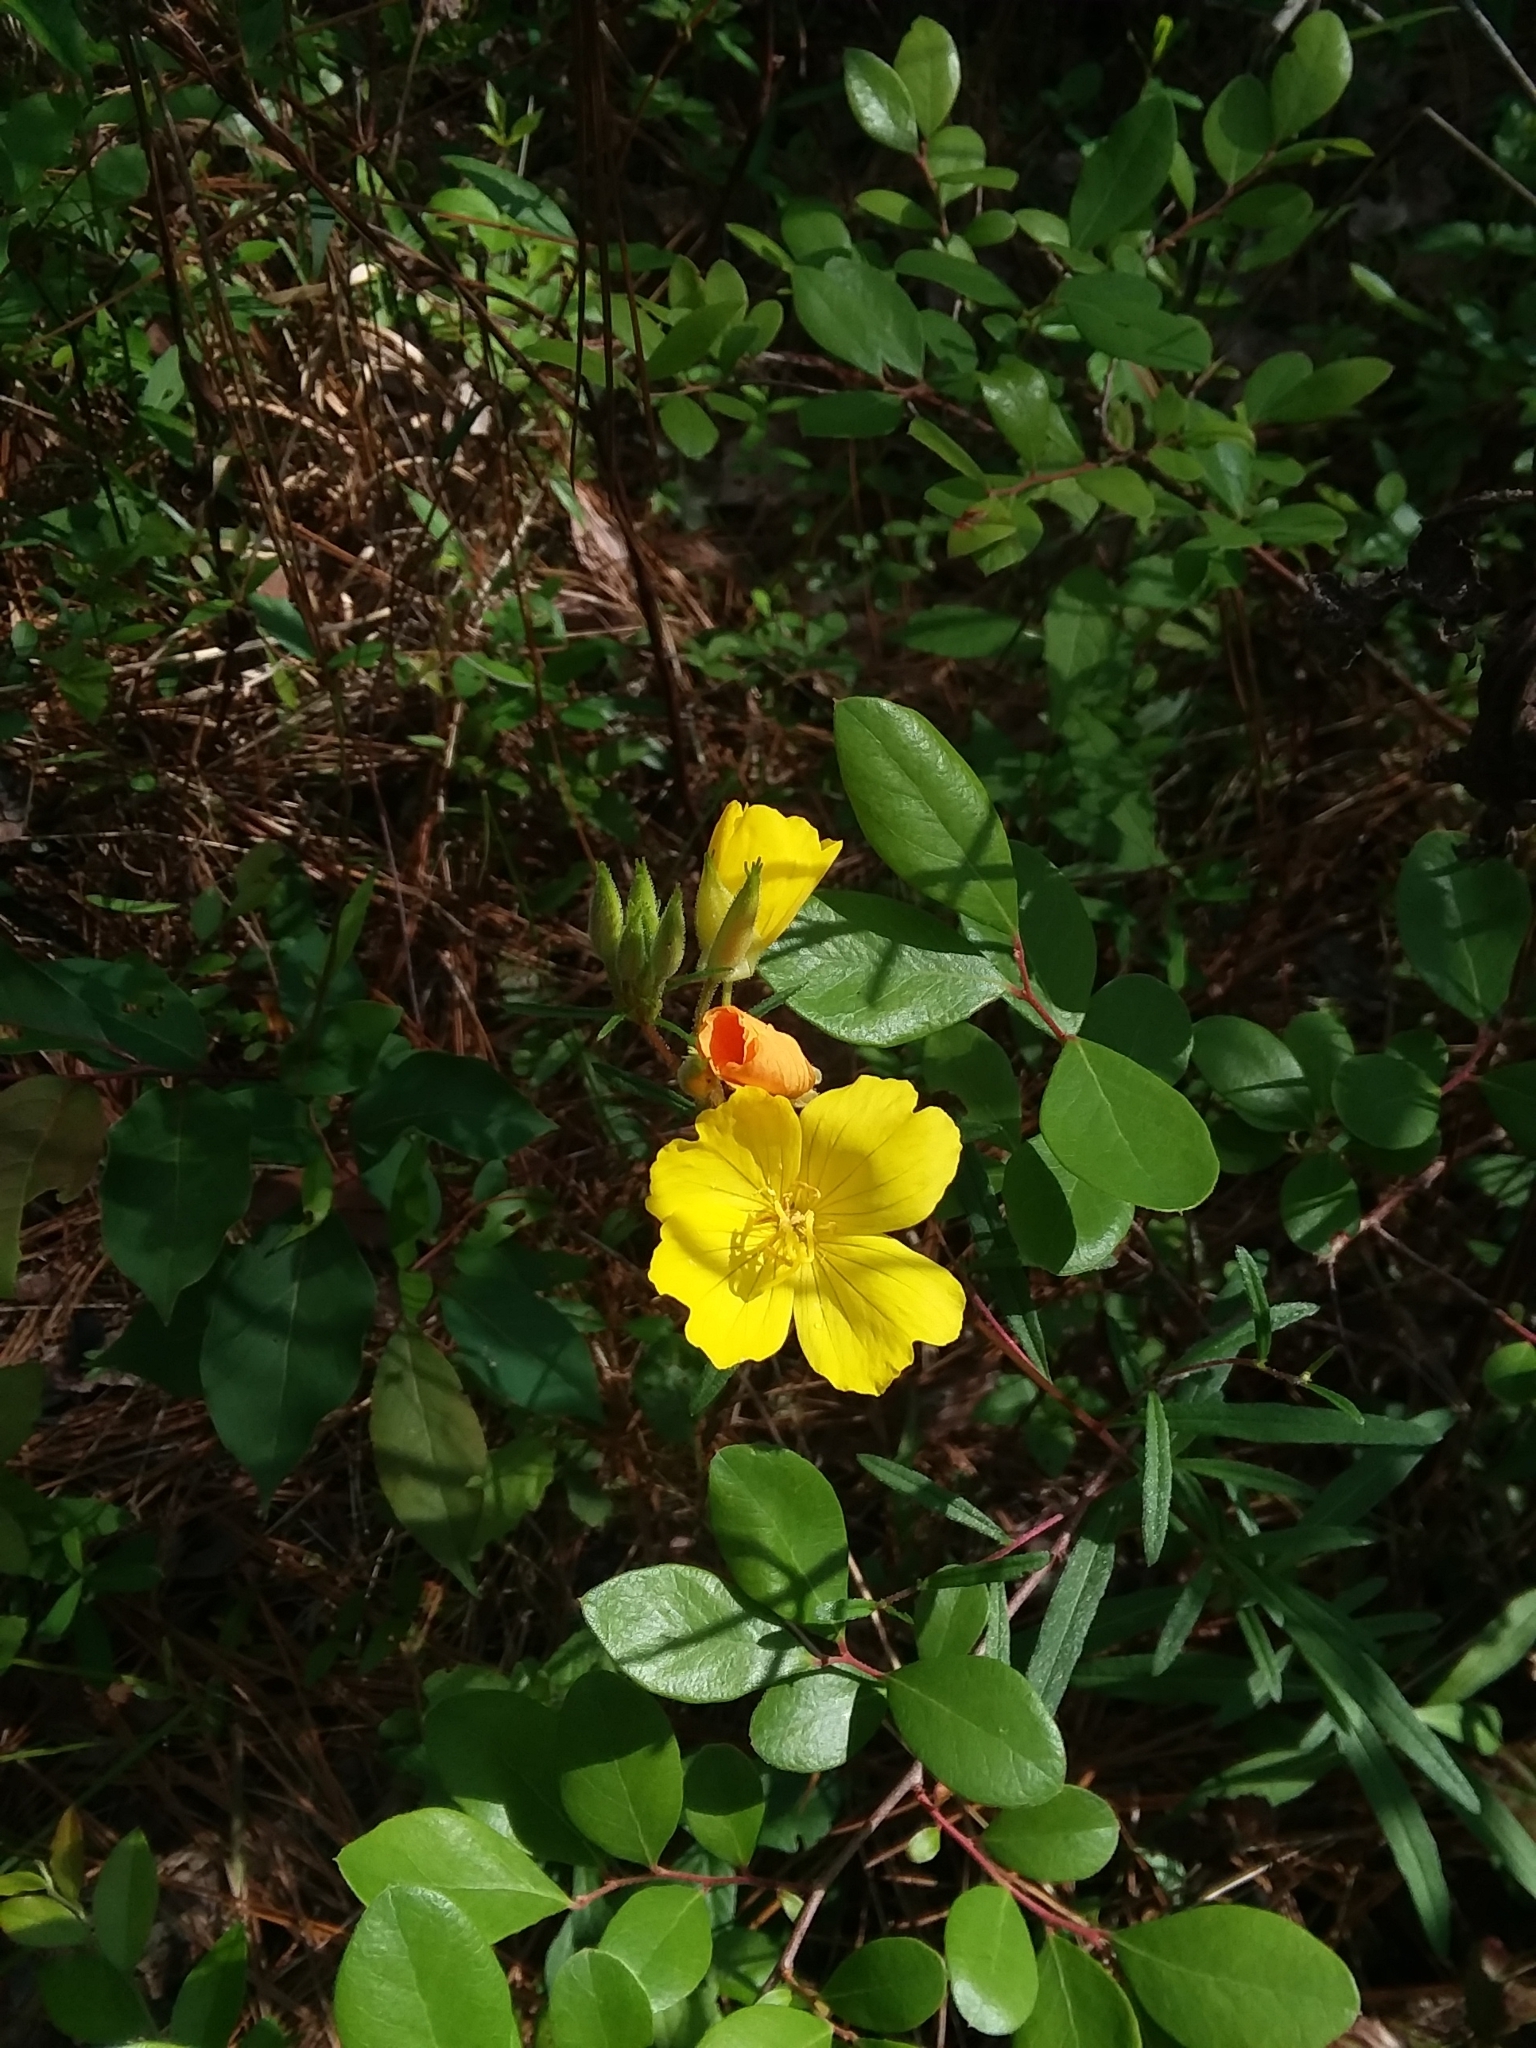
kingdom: Plantae
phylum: Tracheophyta
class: Magnoliopsida
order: Myrtales
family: Onagraceae
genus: Oenothera
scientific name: Oenothera fruticosa
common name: Southern sundrops
